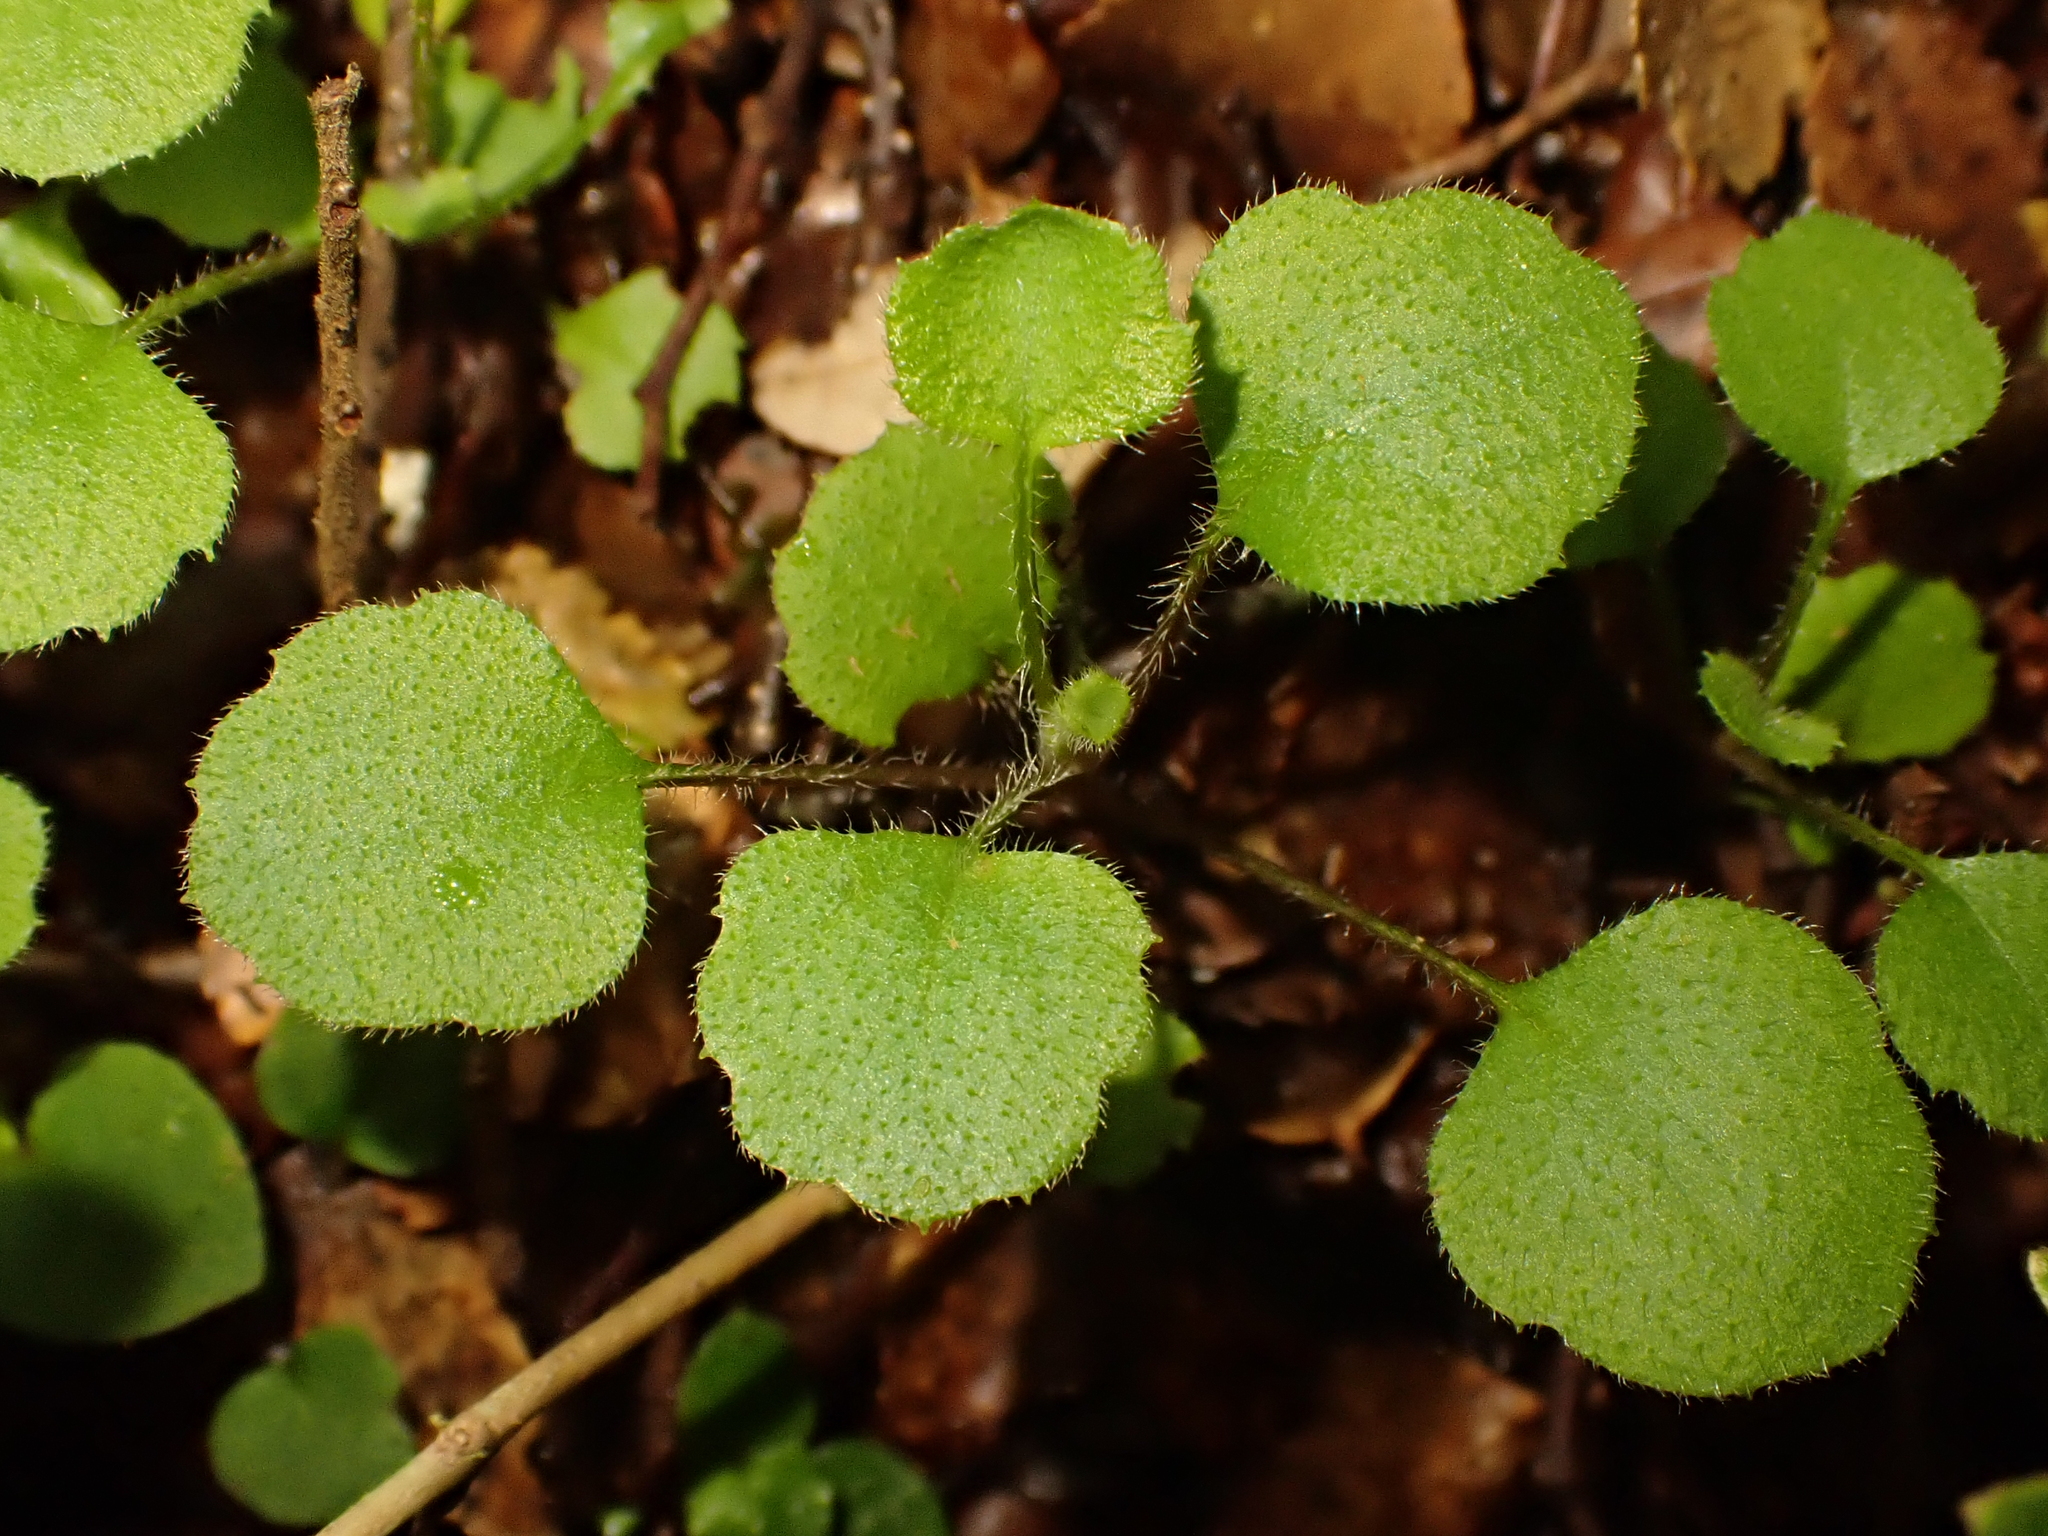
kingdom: Plantae
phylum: Tracheophyta
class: Magnoliopsida
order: Asterales
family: Asteraceae
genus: Lagenophora
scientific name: Lagenophora strangulata
